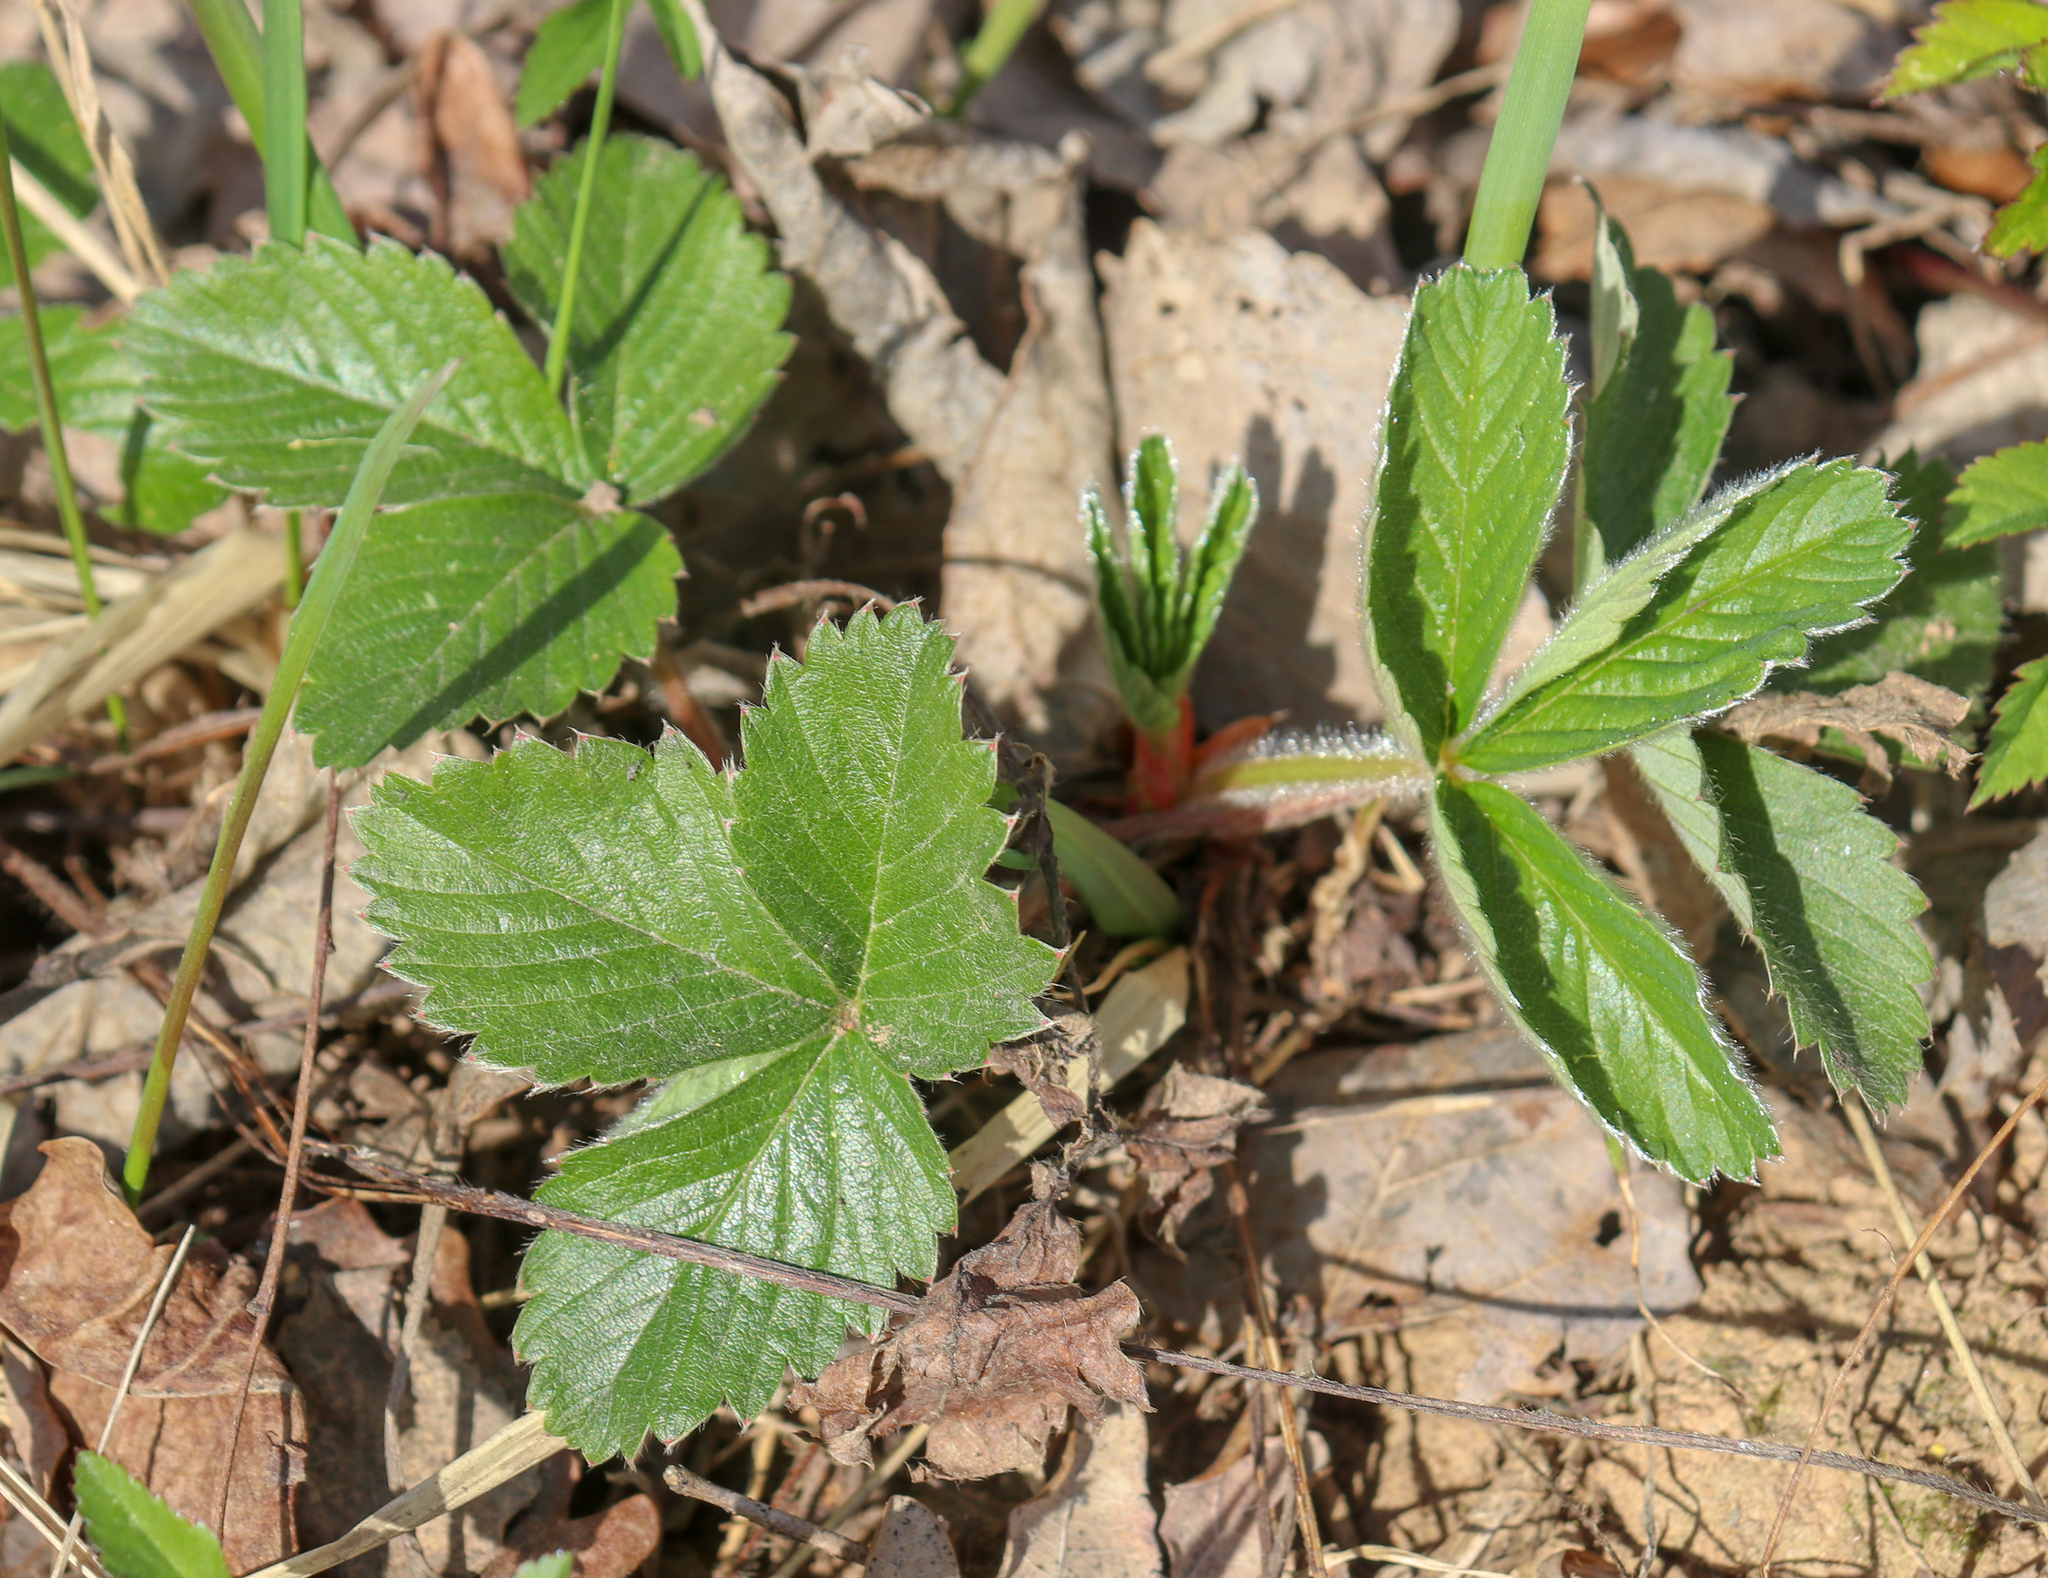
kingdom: Plantae
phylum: Tracheophyta
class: Magnoliopsida
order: Rosales
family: Rosaceae
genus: Fragaria
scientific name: Fragaria vesca
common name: Wild strawberry
